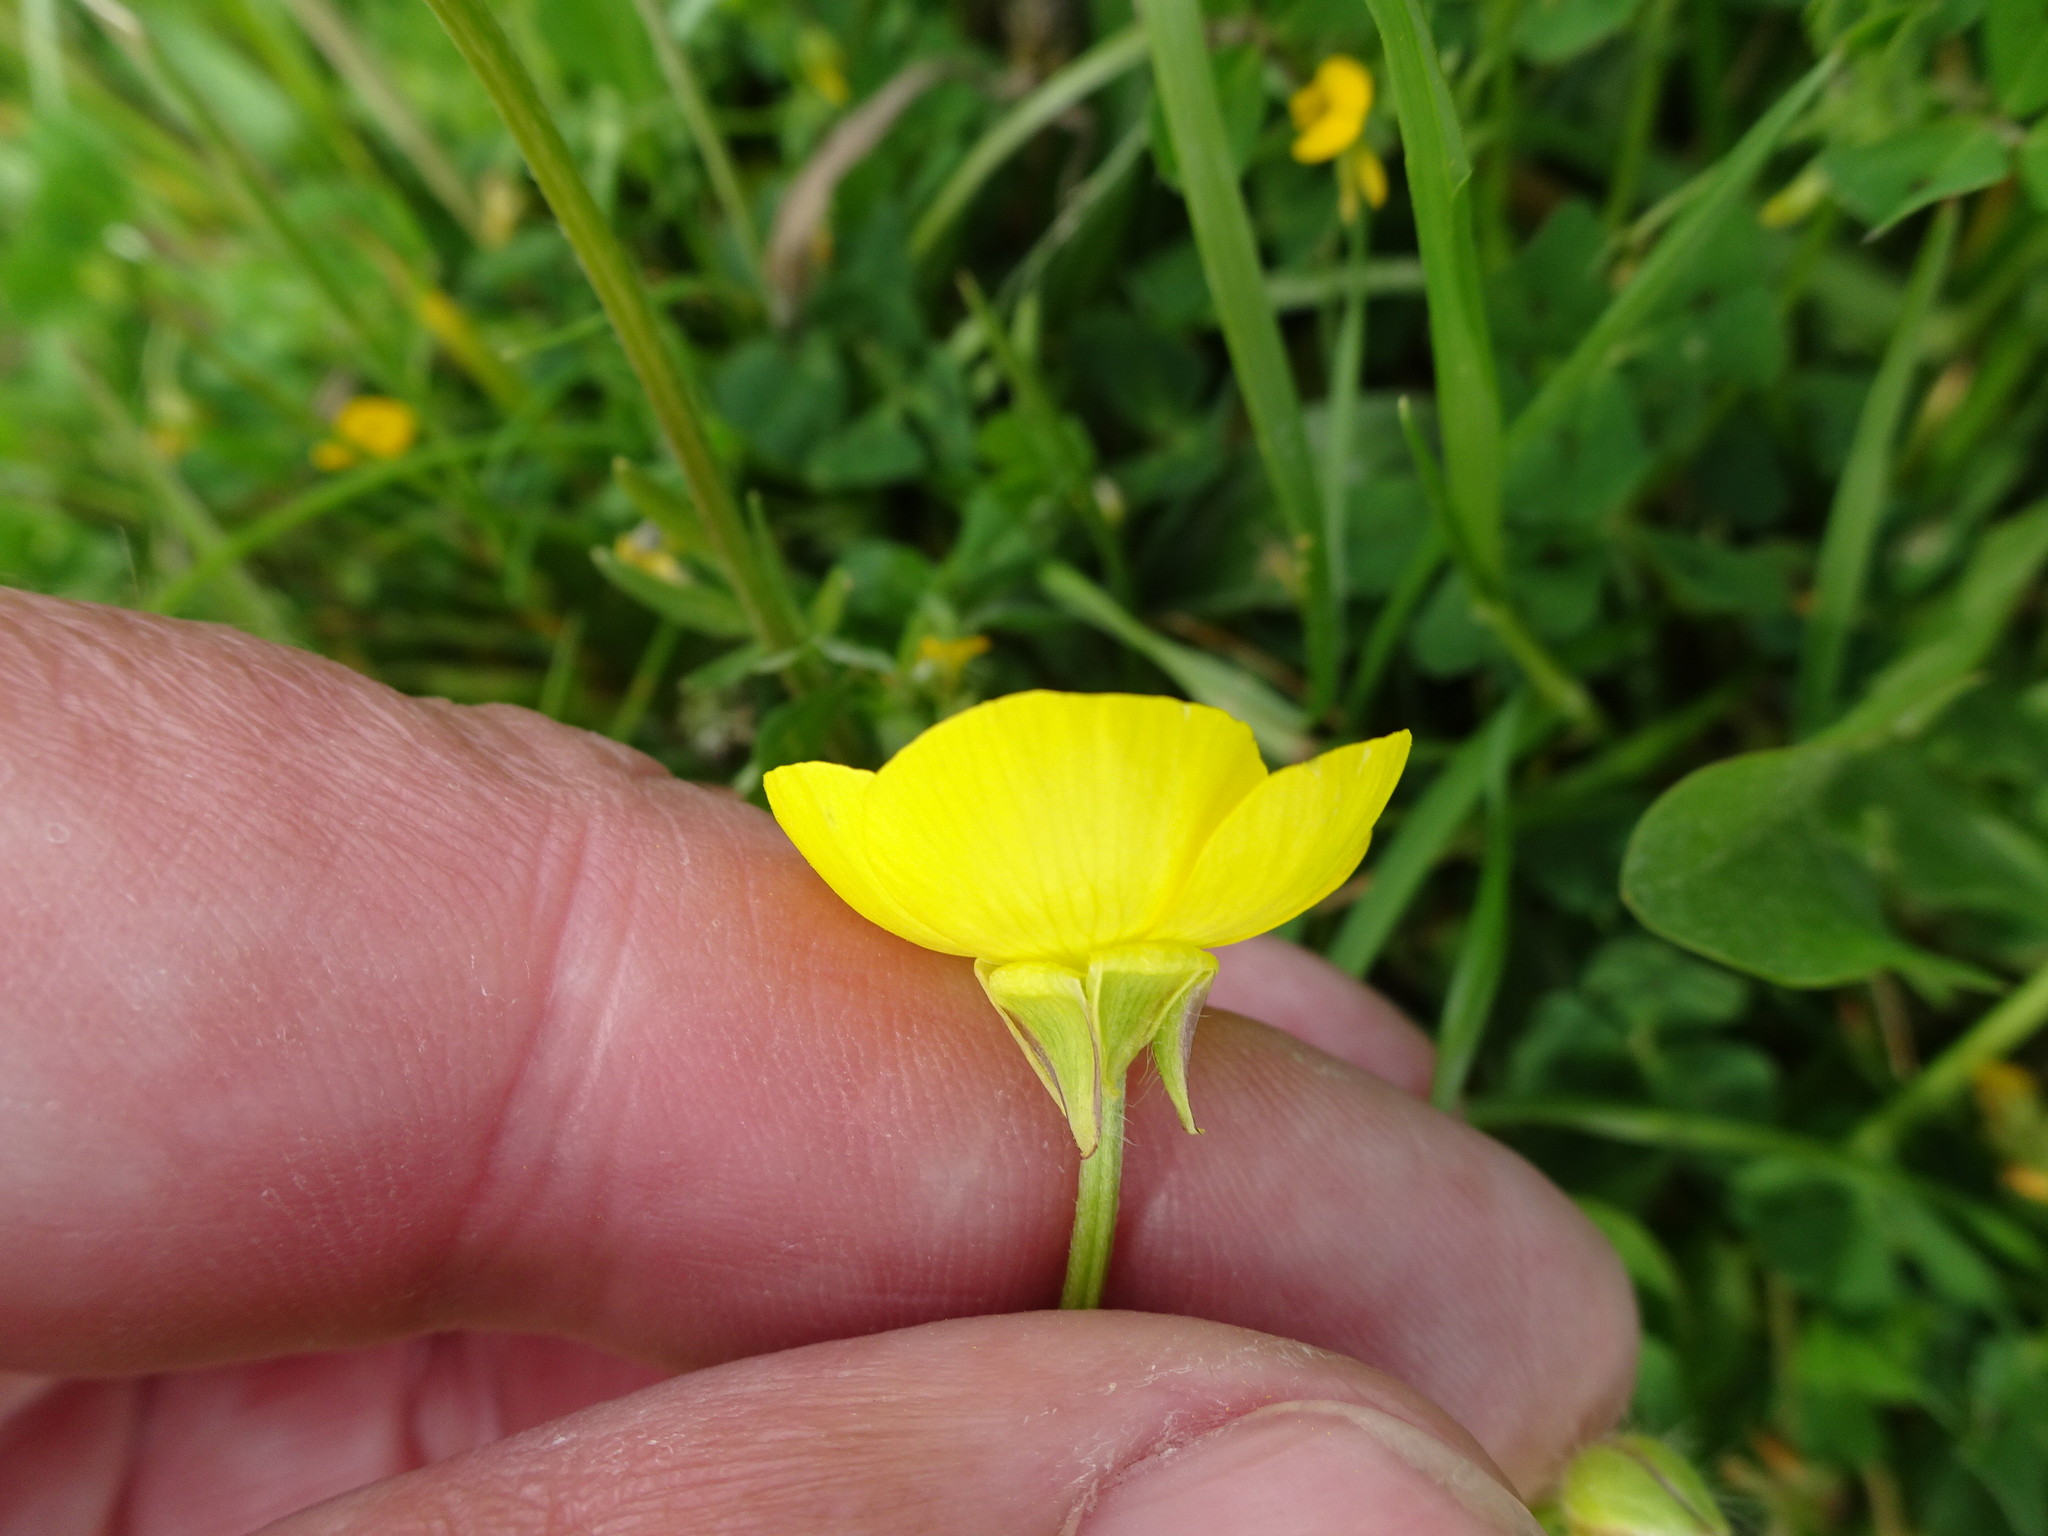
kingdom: Plantae
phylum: Tracheophyta
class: Magnoliopsida
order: Ranunculales
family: Ranunculaceae
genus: Ranunculus
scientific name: Ranunculus bulbosus
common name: Bulbous buttercup
